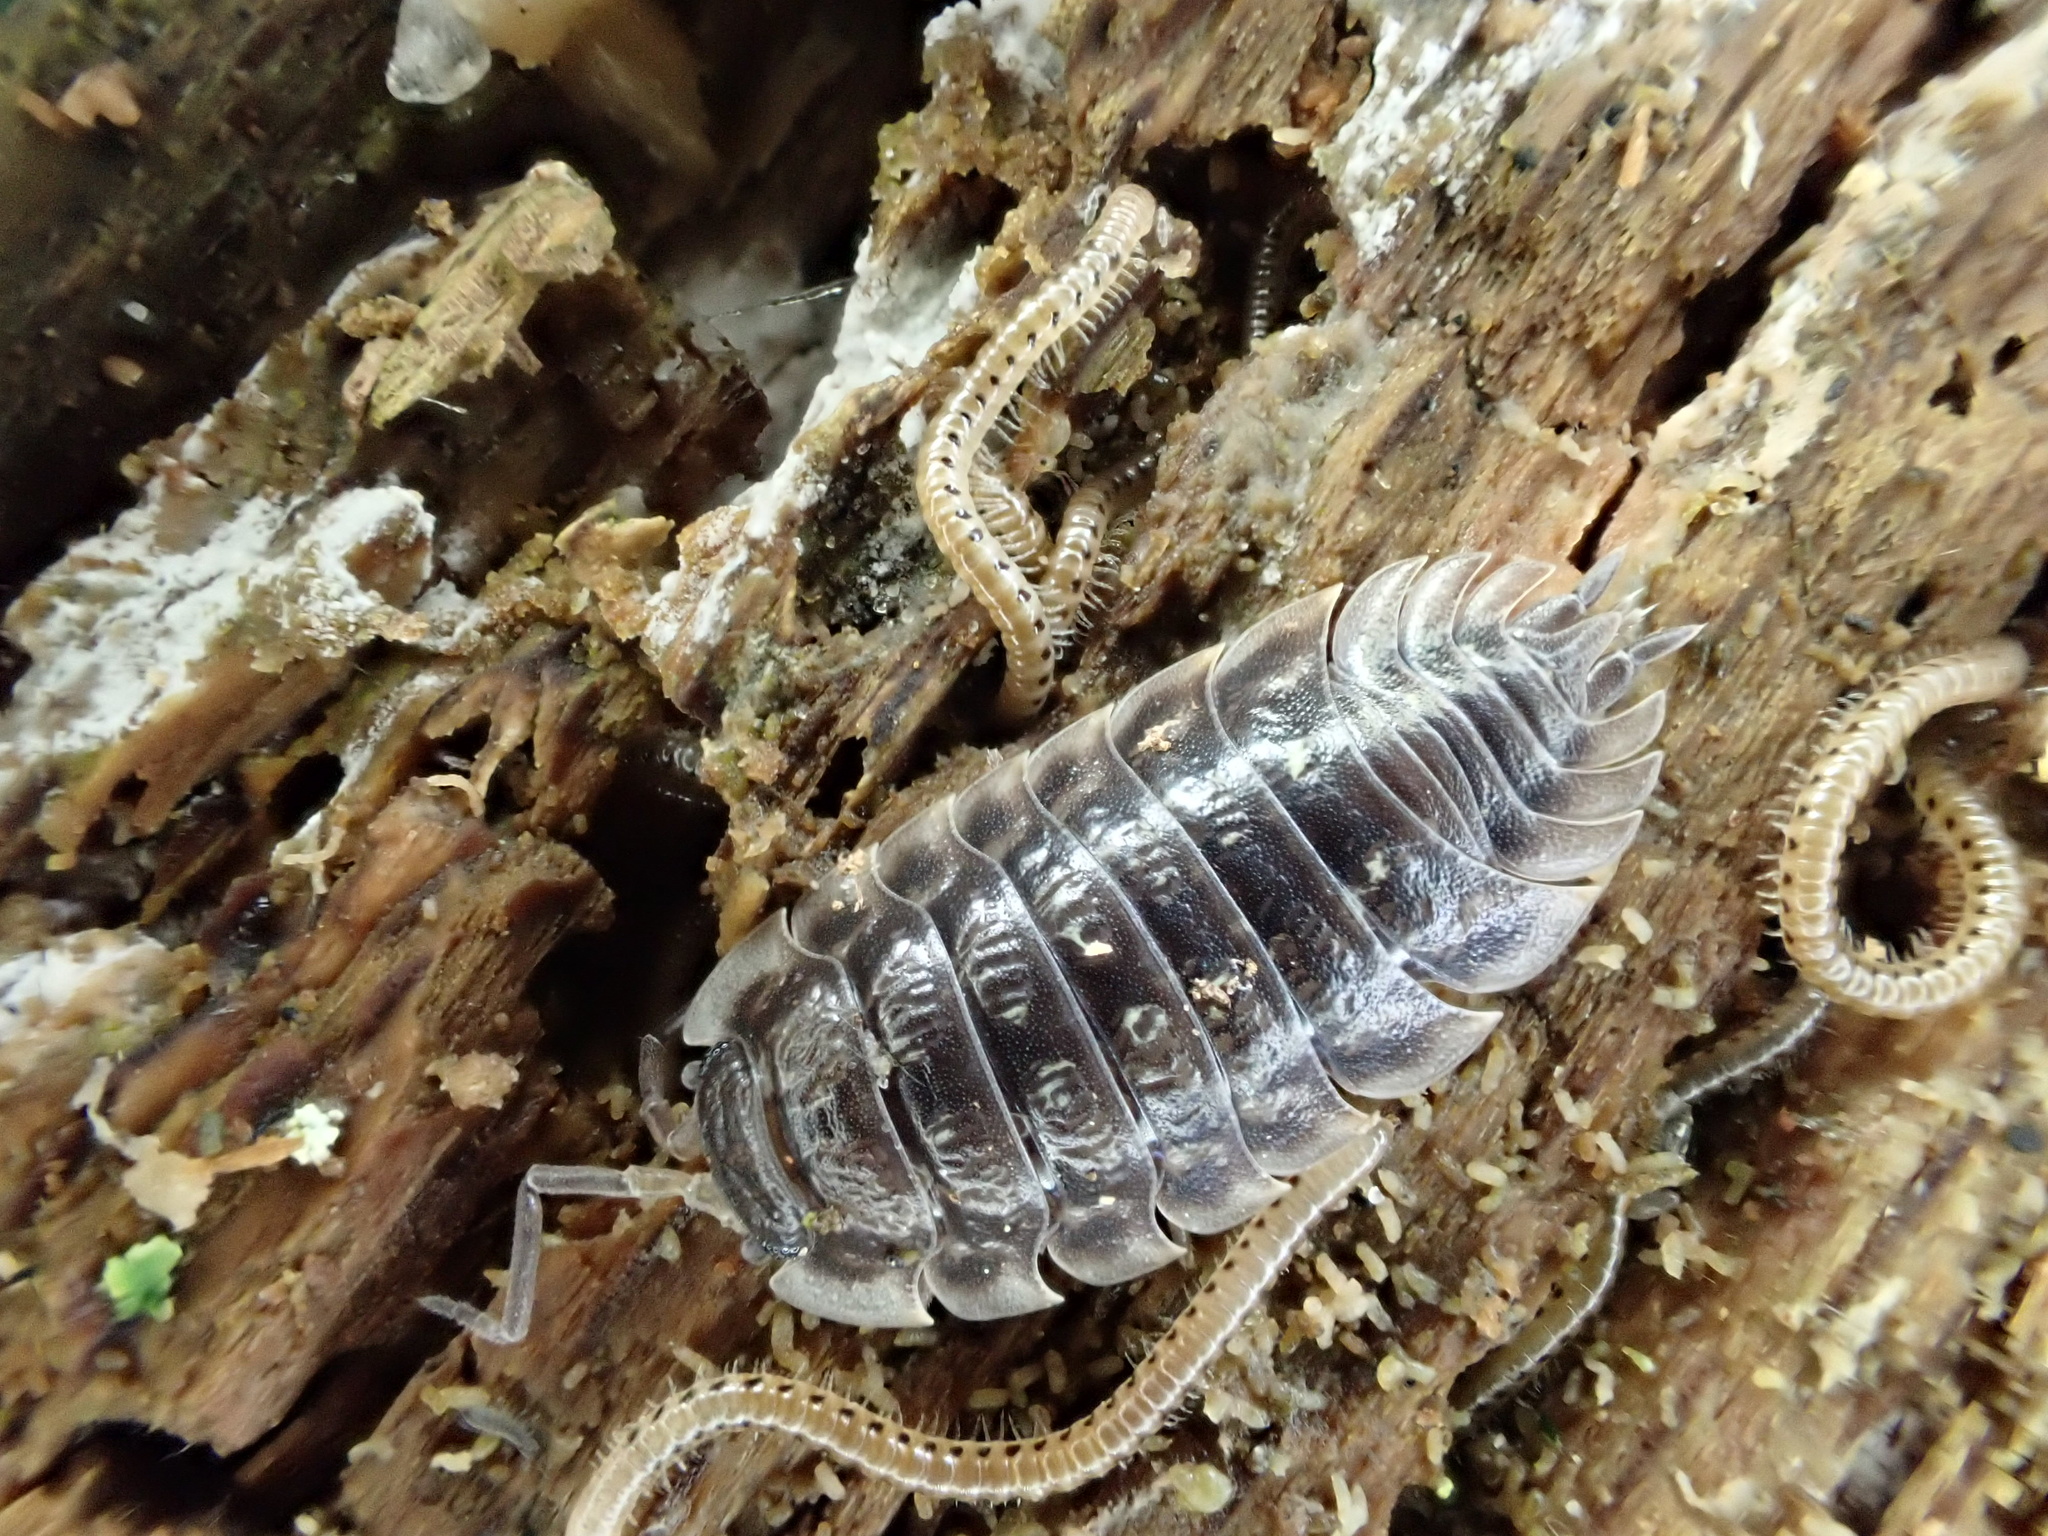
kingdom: Animalia
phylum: Arthropoda
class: Malacostraca
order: Isopoda
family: Oniscidae
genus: Oniscus
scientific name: Oniscus asellus
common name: Common shiny woodlouse
